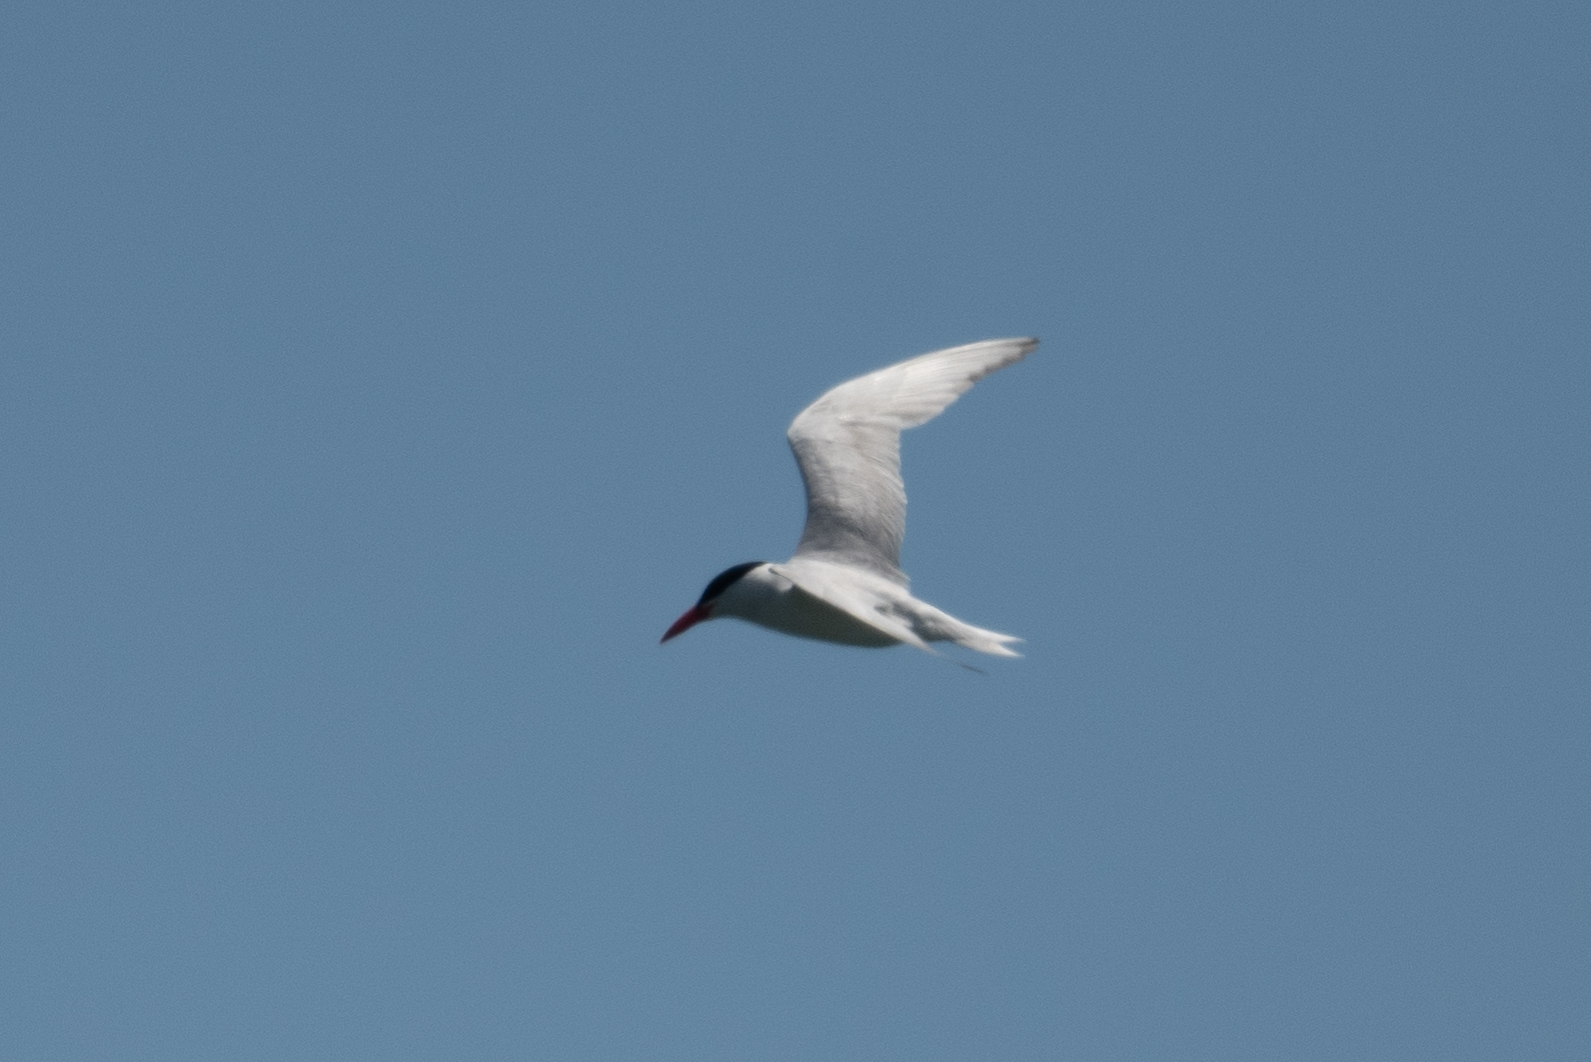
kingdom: Animalia
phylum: Chordata
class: Aves
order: Charadriiformes
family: Laridae
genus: Hydroprogne
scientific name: Hydroprogne caspia
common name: Caspian tern
